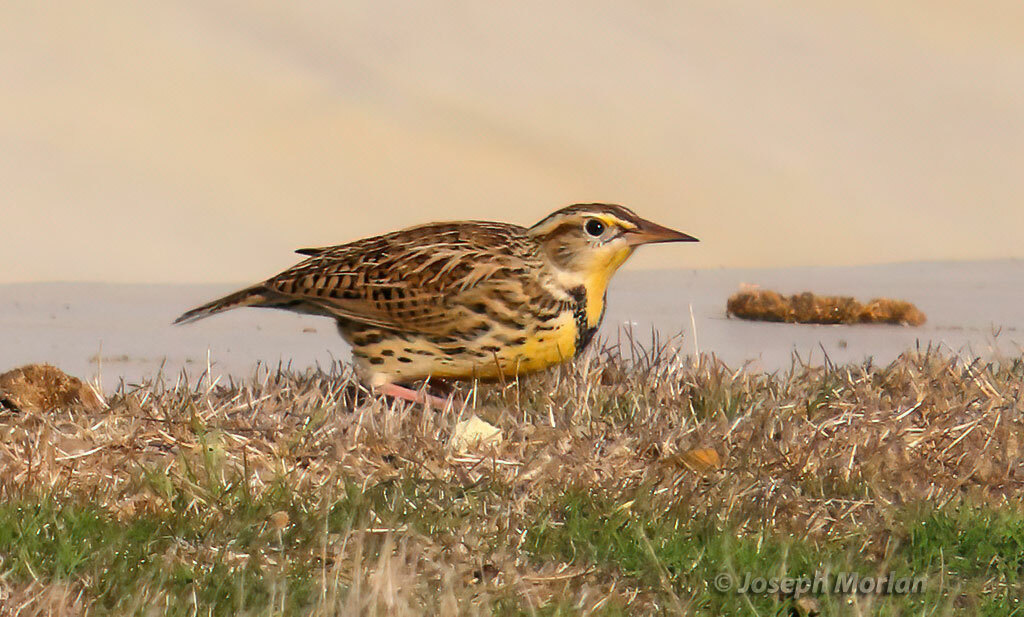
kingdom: Animalia
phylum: Chordata
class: Aves
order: Passeriformes
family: Icteridae
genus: Sturnella
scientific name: Sturnella neglecta
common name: Western meadowlark
